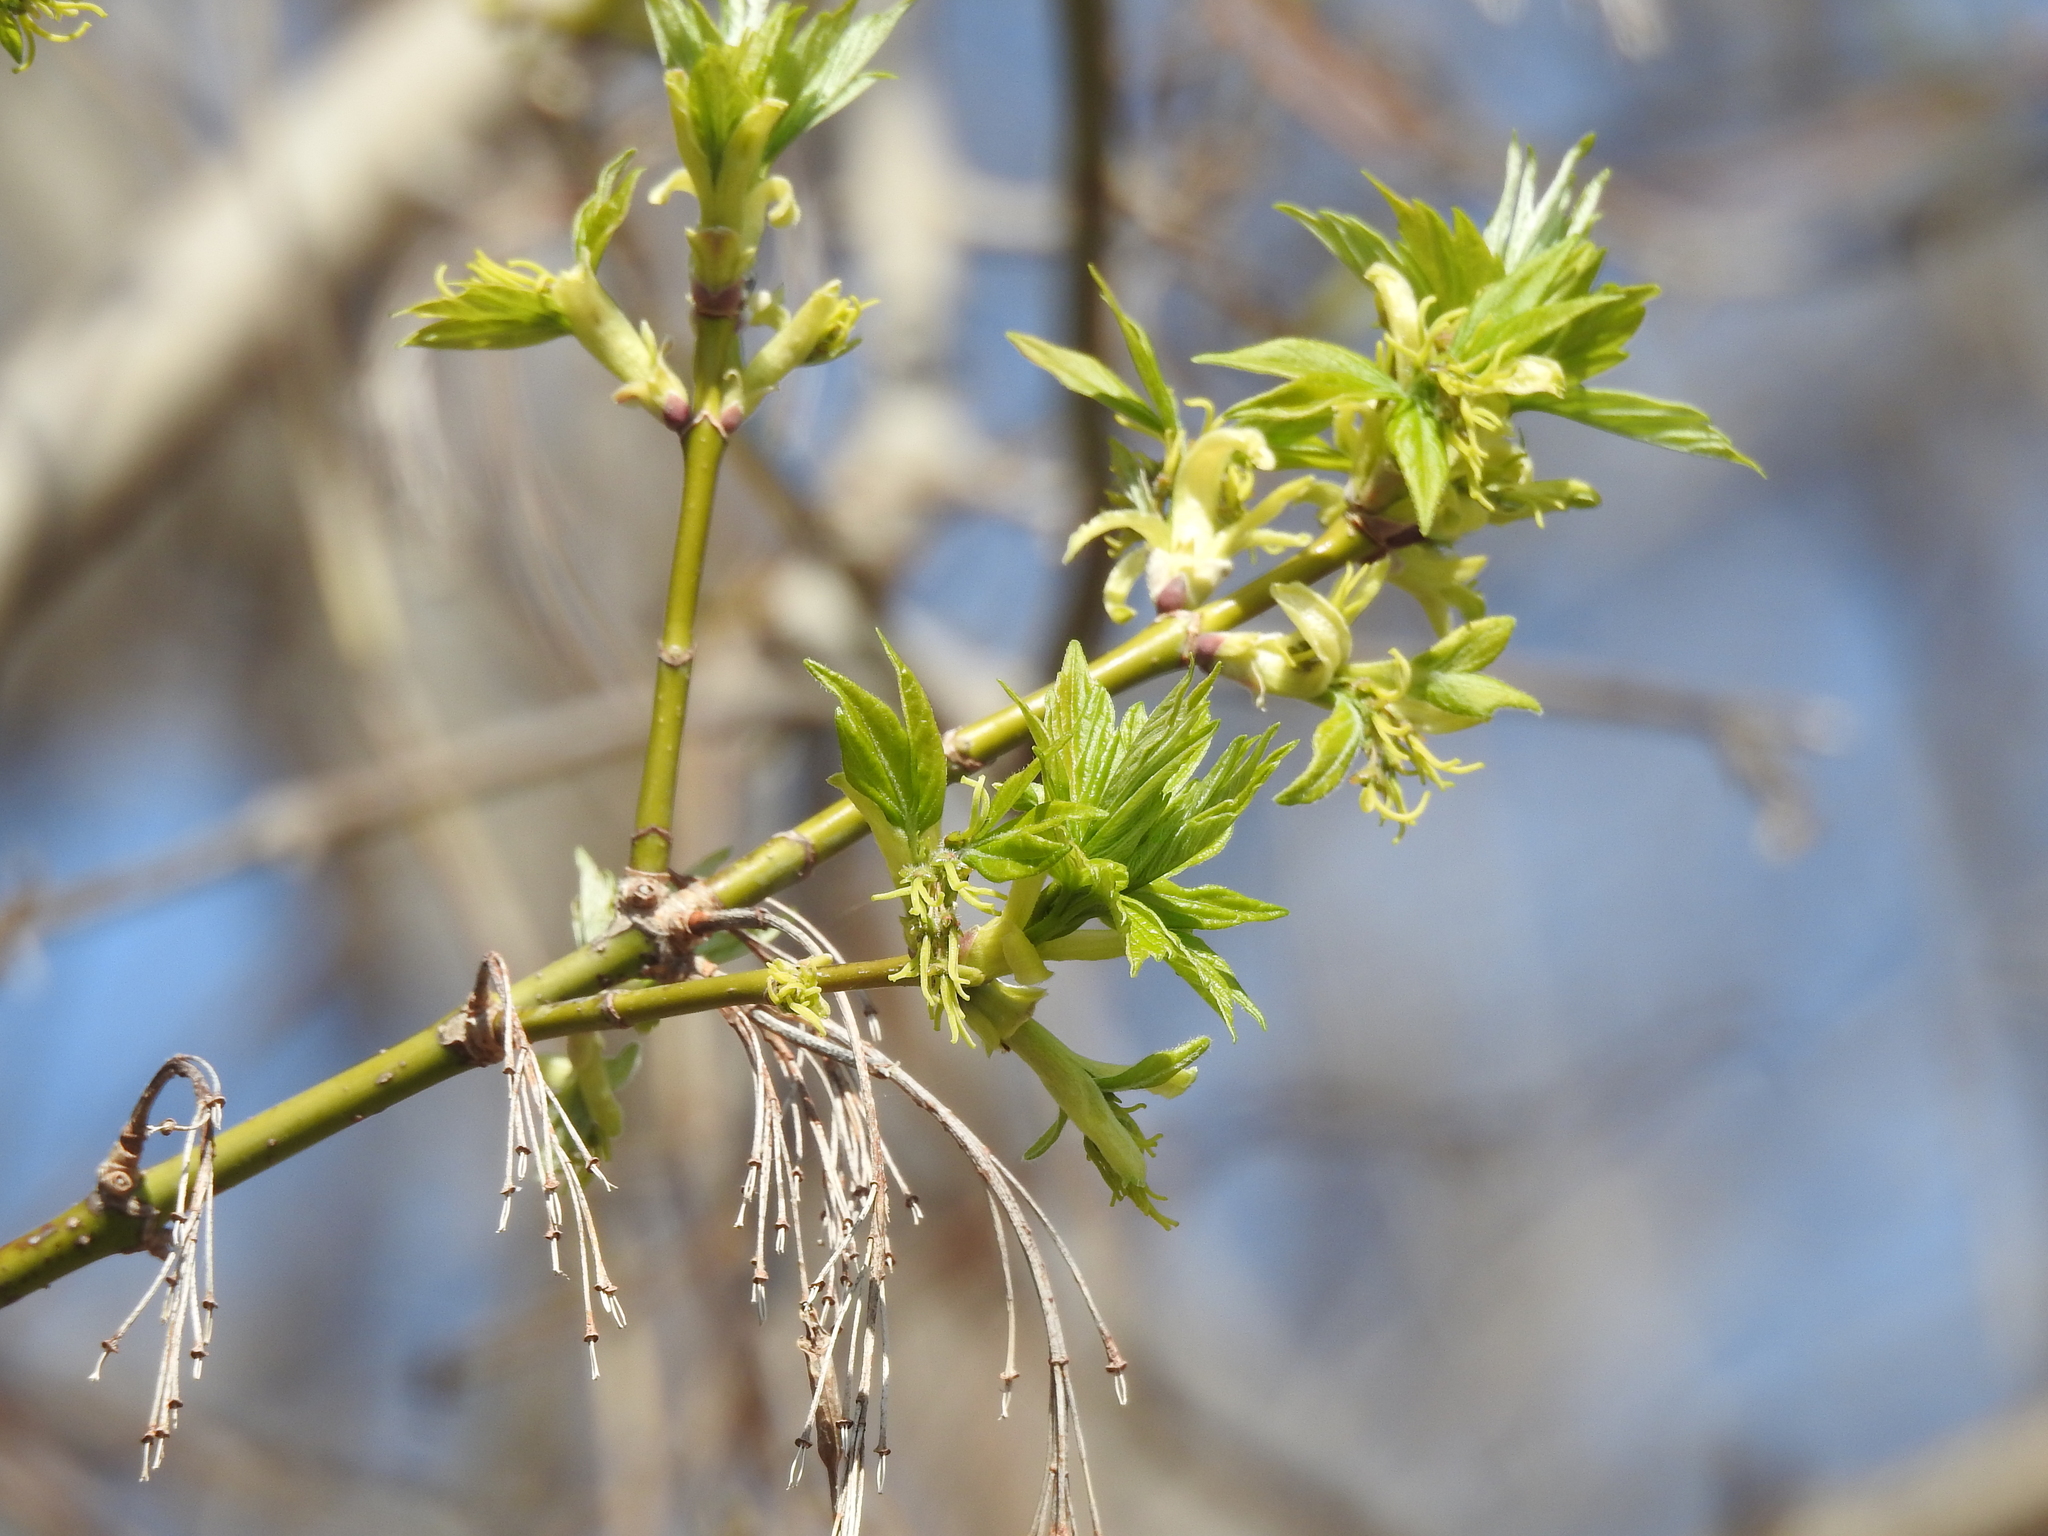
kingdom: Plantae
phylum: Tracheophyta
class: Magnoliopsida
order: Sapindales
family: Sapindaceae
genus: Acer
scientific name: Acer negundo
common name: Ashleaf maple
